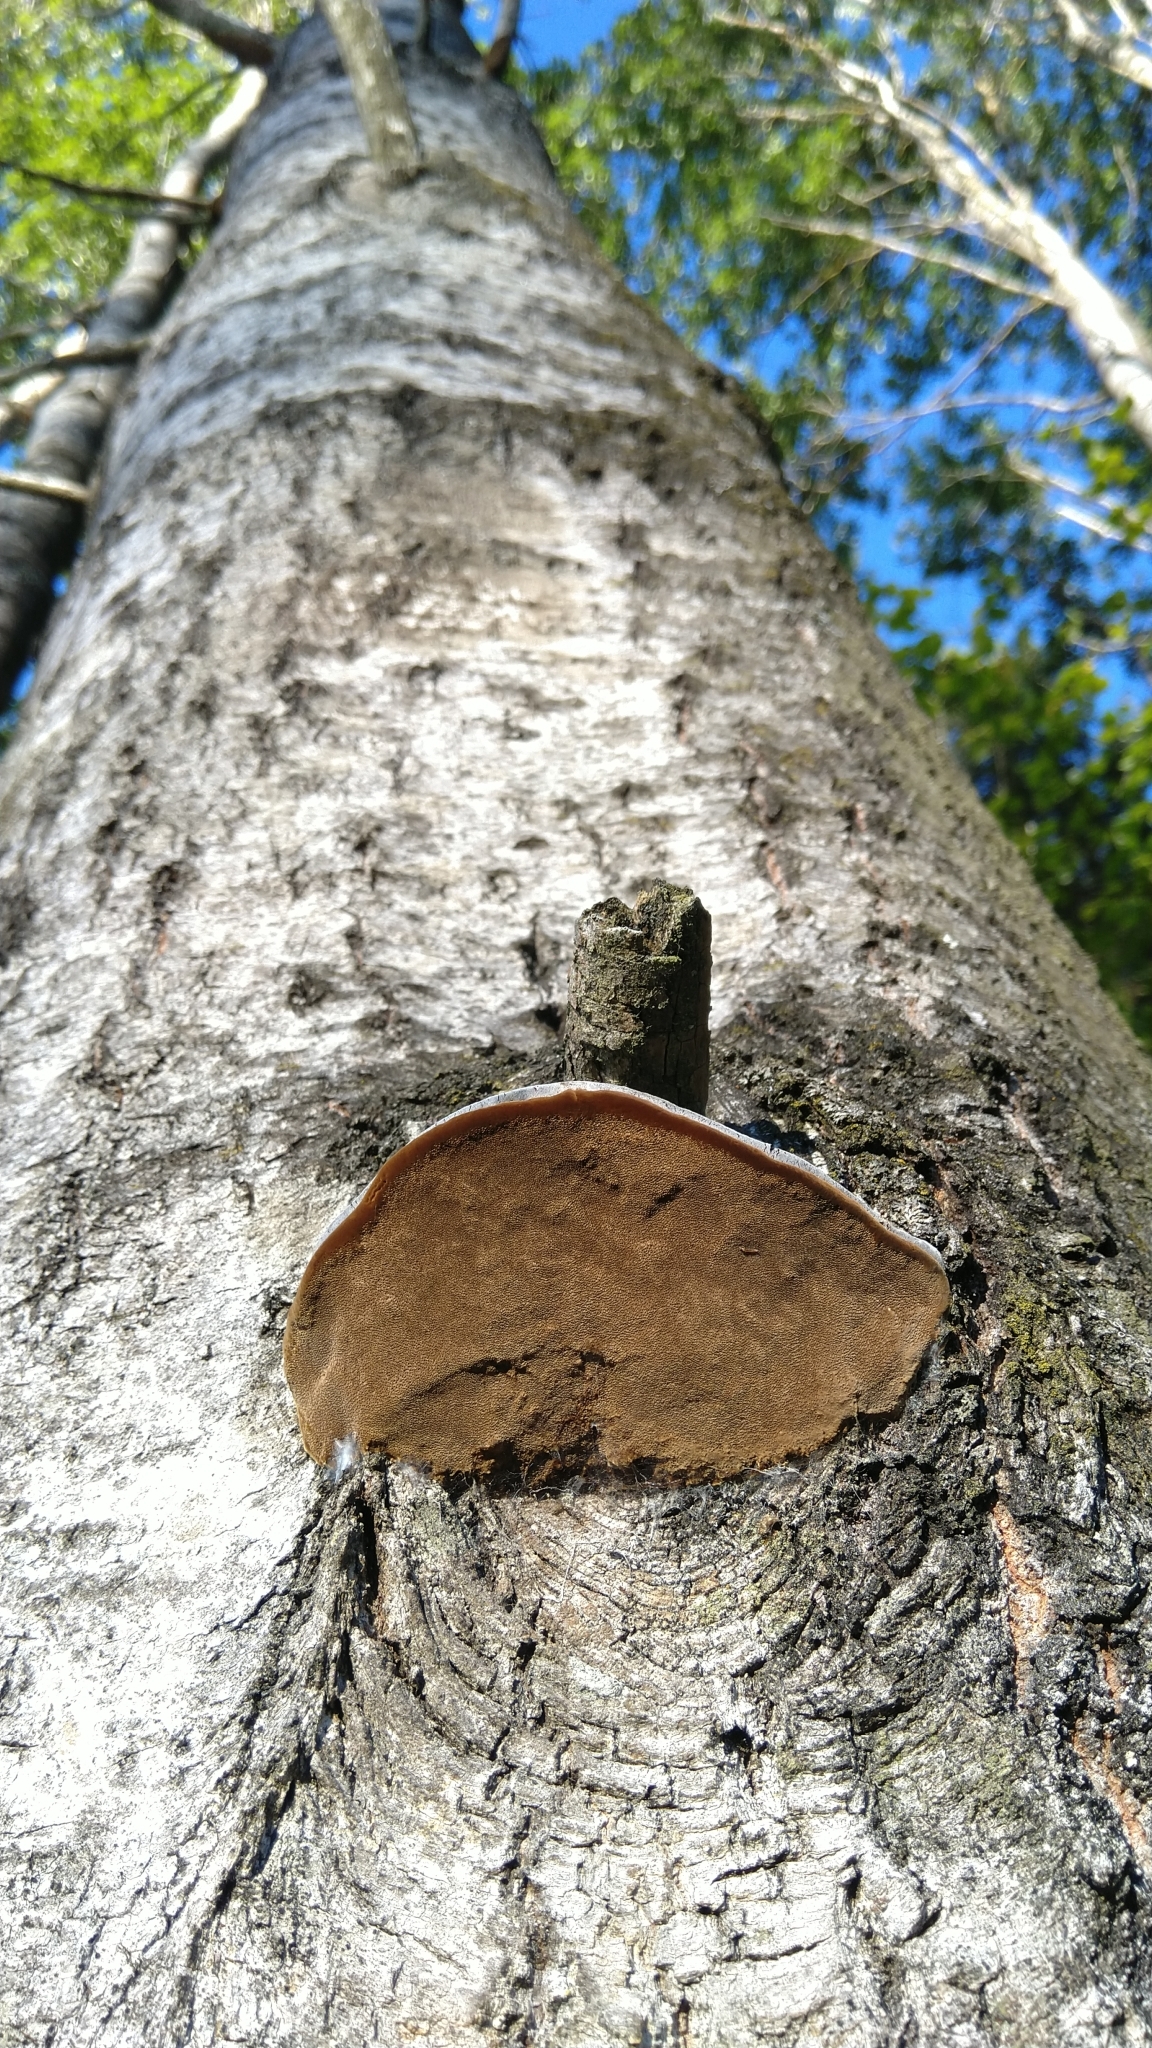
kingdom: Fungi
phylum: Basidiomycota
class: Agaricomycetes
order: Hymenochaetales
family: Hymenochaetaceae
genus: Phellinus
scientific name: Phellinus tremulae
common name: Aspen bracket
